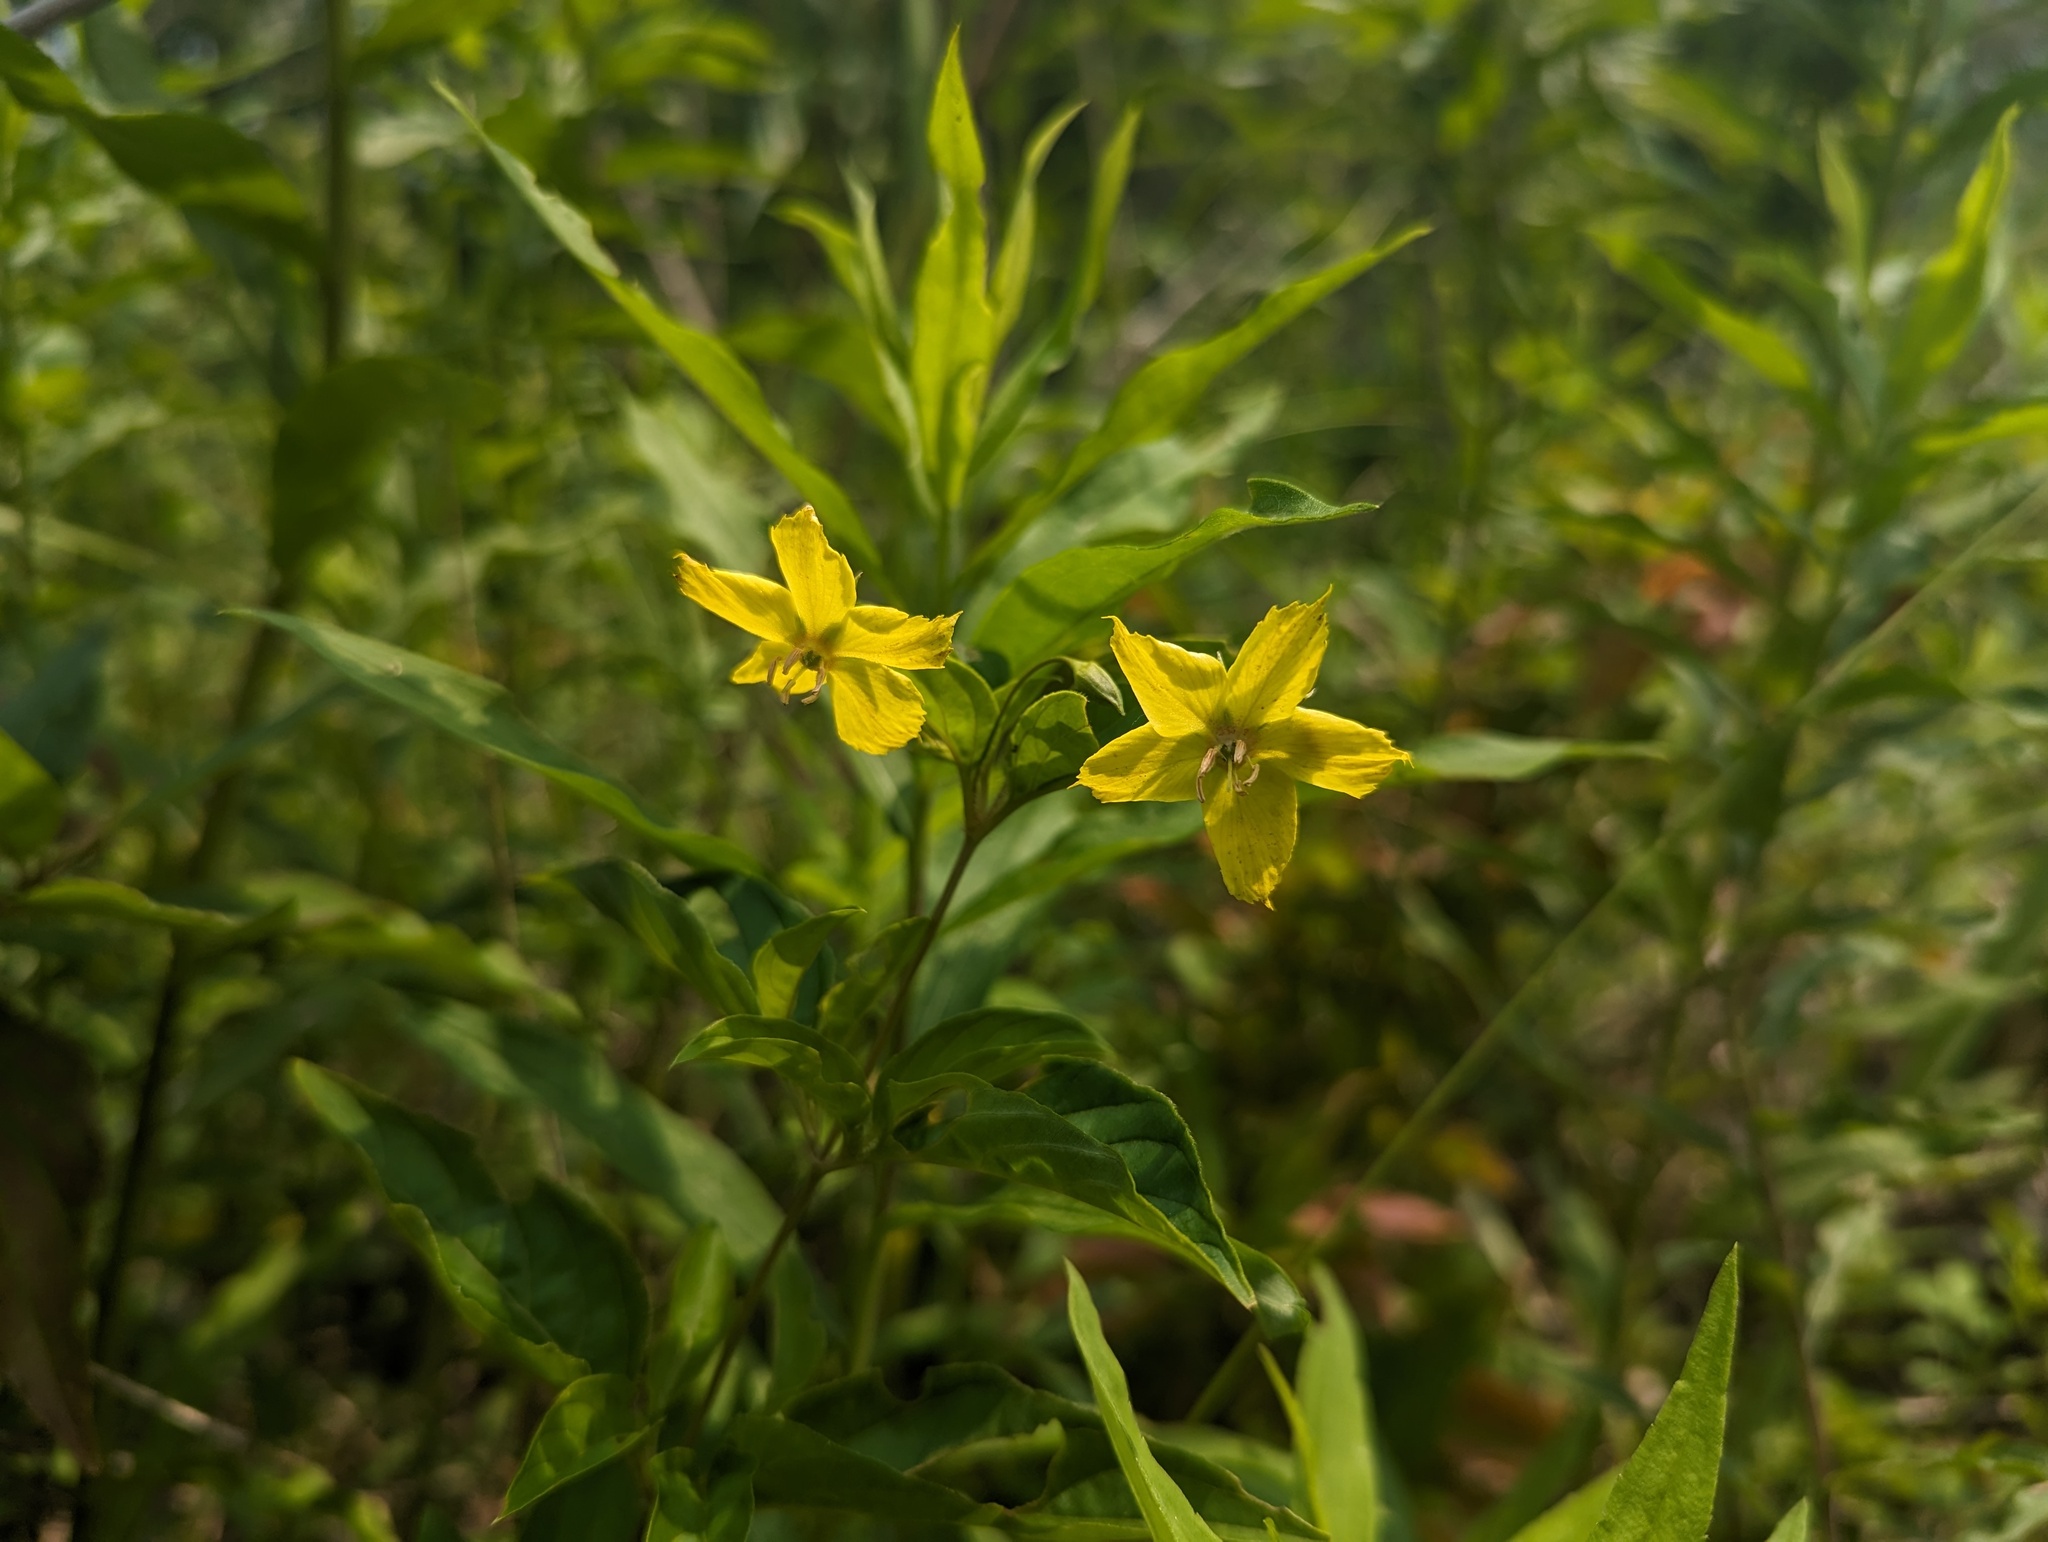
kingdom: Plantae
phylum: Tracheophyta
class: Magnoliopsida
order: Ericales
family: Primulaceae
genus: Lysimachia
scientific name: Lysimachia ciliata
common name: Fringed loosestrife
